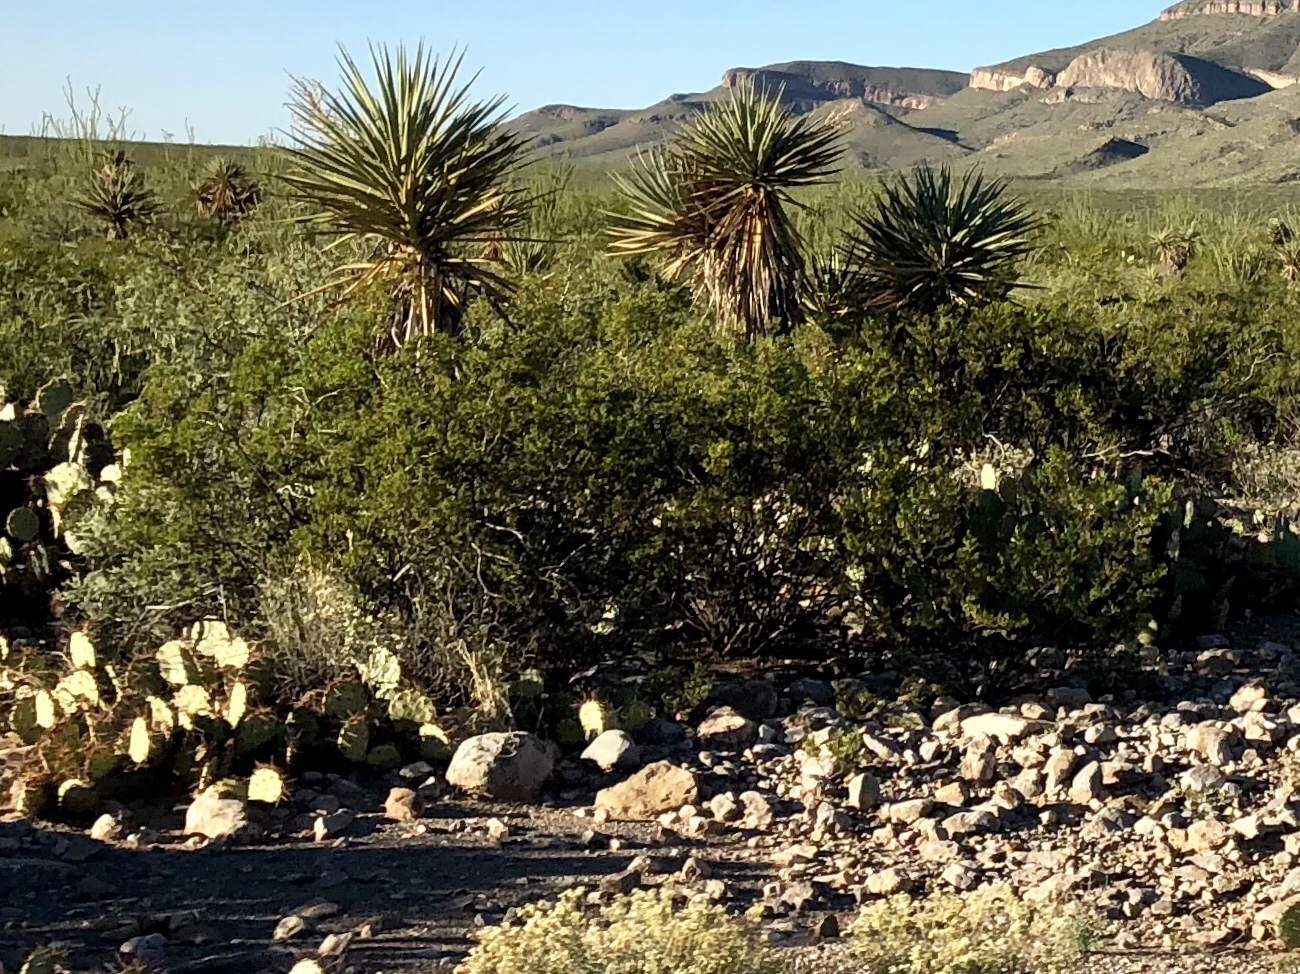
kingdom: Plantae
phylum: Tracheophyta
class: Magnoliopsida
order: Zygophyllales
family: Zygophyllaceae
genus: Larrea
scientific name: Larrea tridentata
